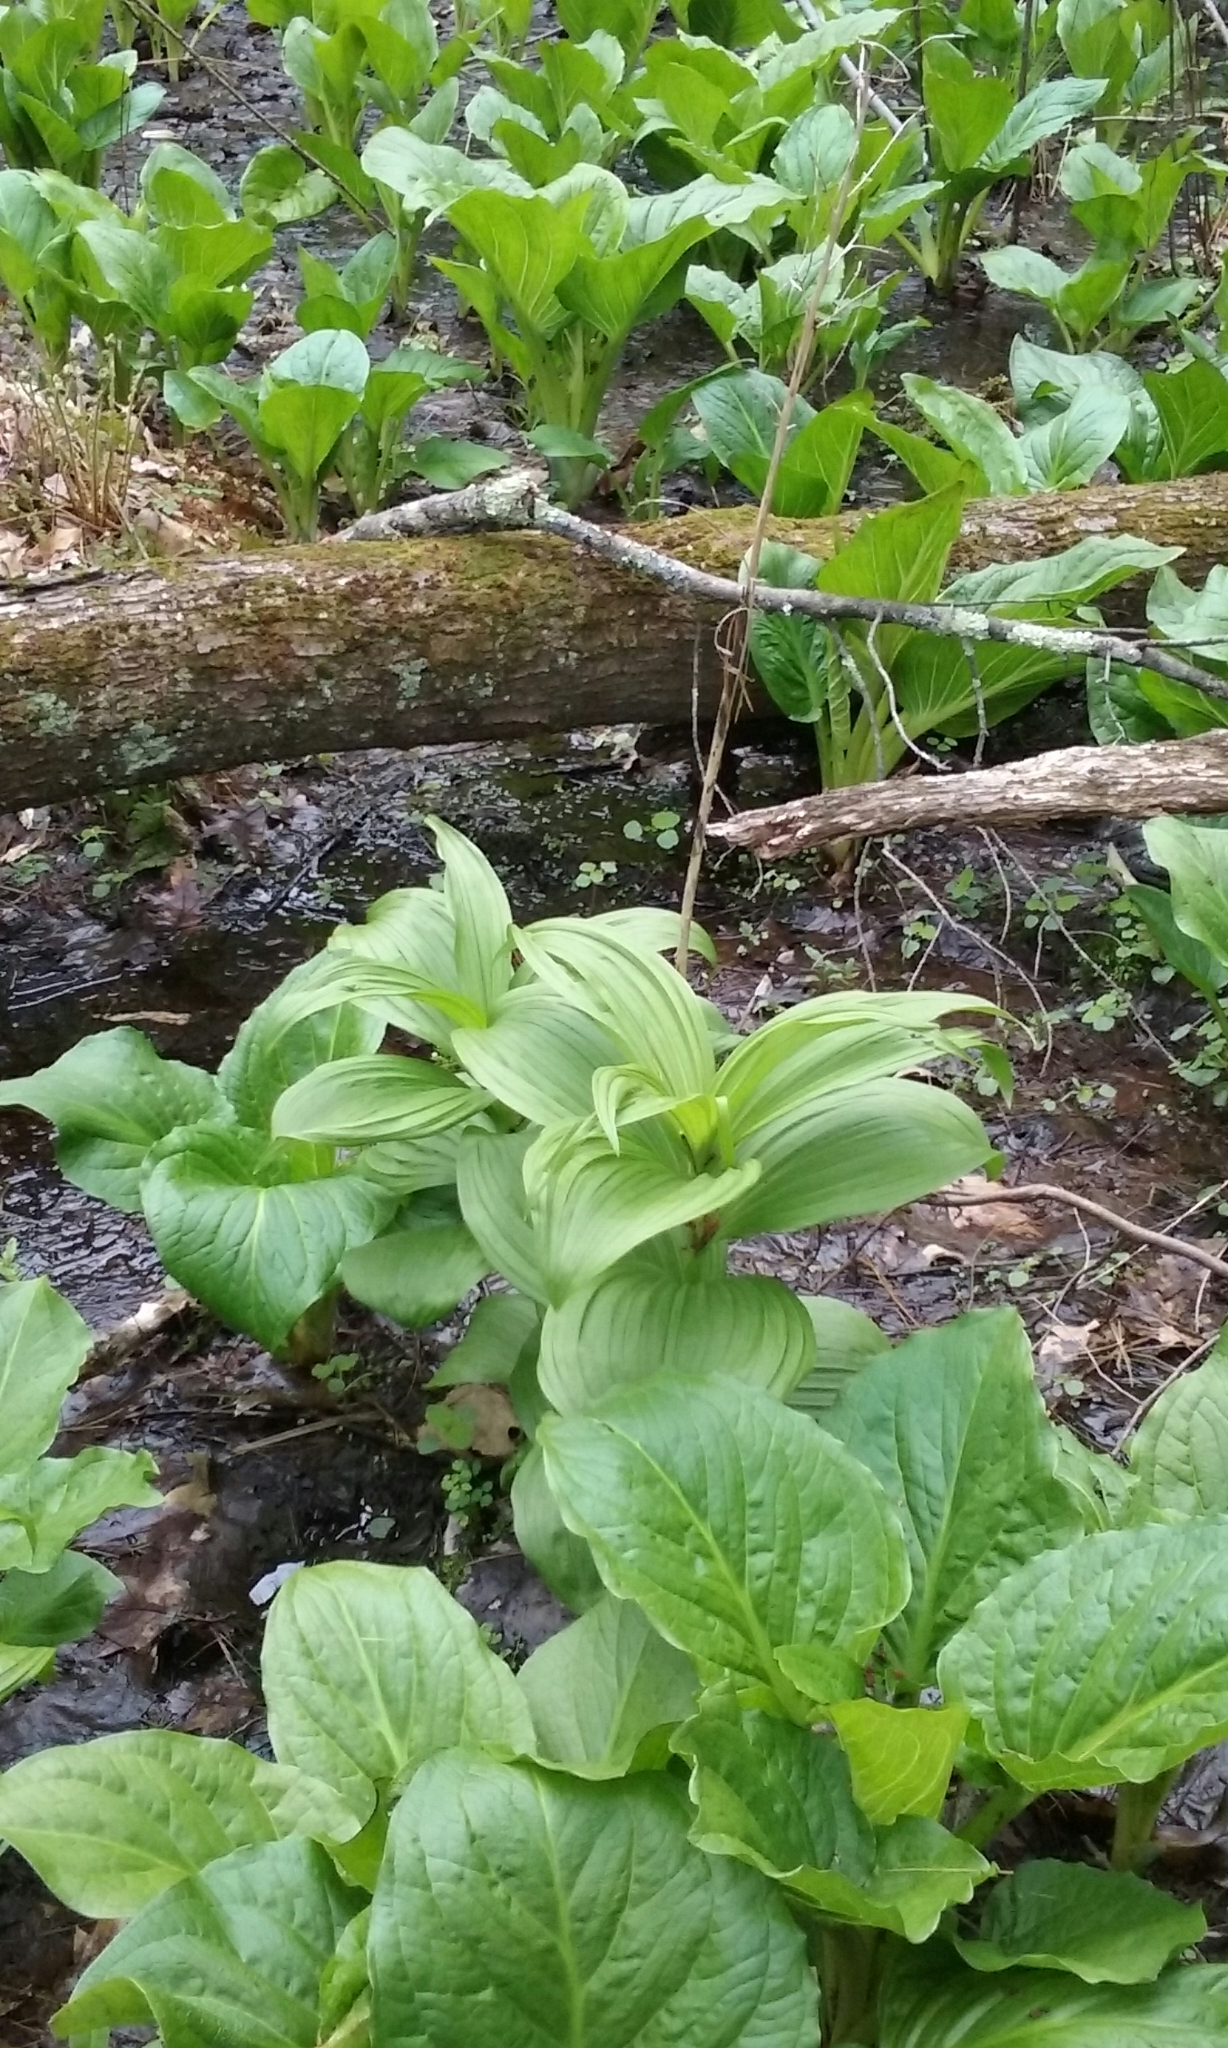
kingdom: Plantae
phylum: Tracheophyta
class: Liliopsida
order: Liliales
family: Melanthiaceae
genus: Veratrum
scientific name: Veratrum viride
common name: American false hellebore
